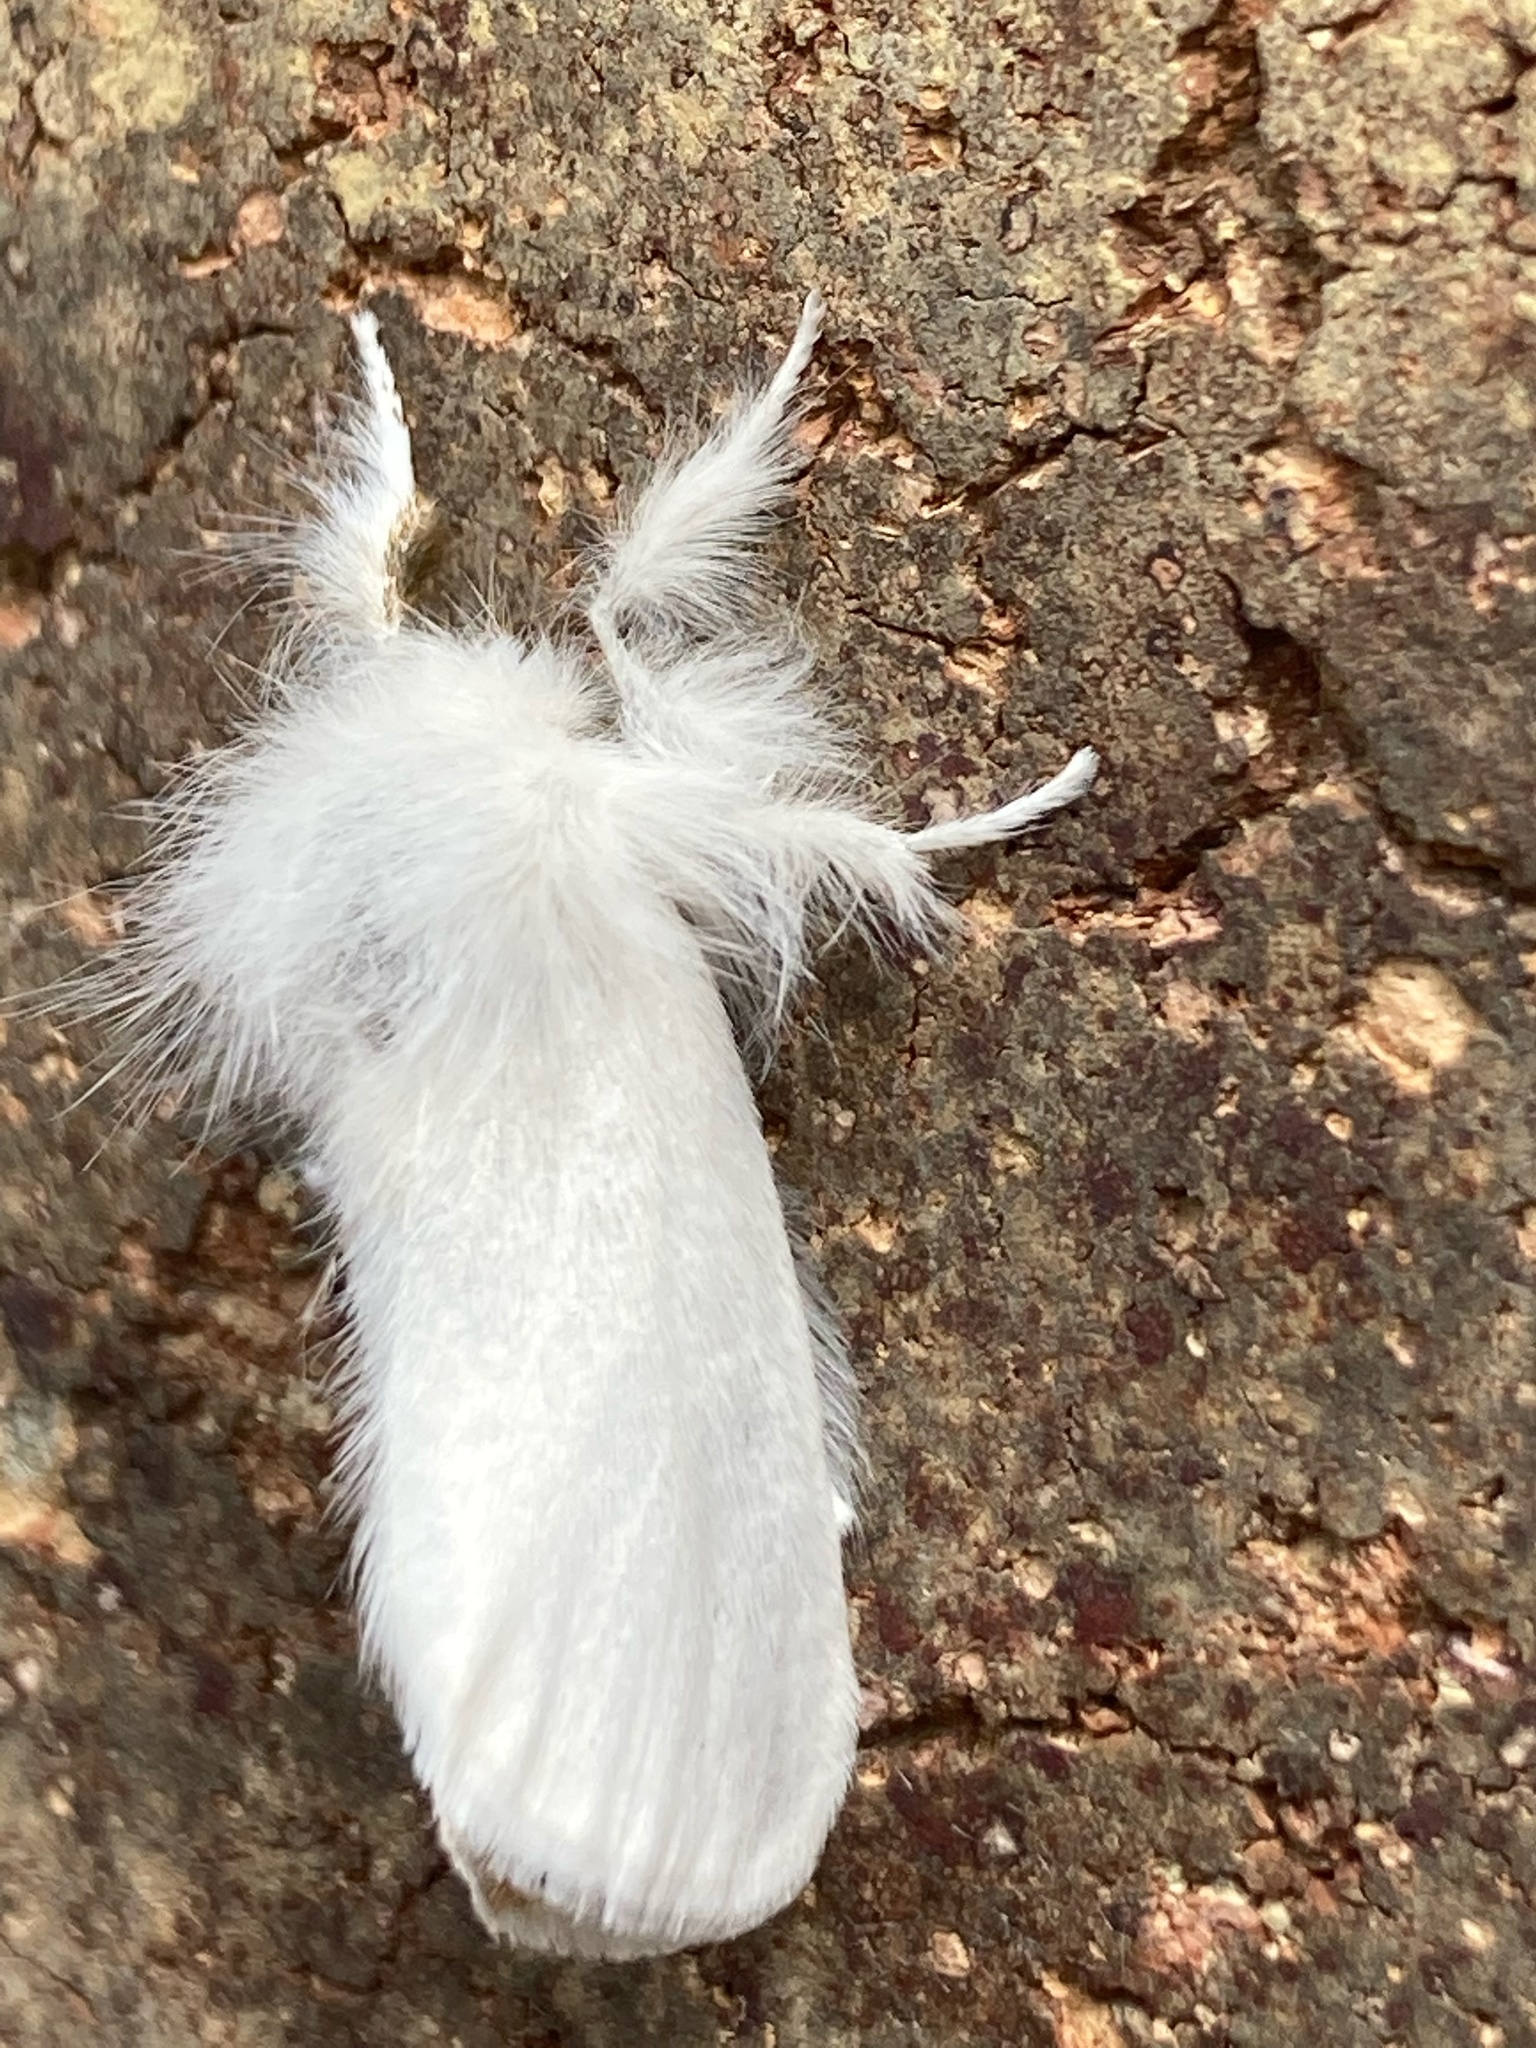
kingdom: Animalia
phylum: Arthropoda
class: Insecta
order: Lepidoptera
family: Erebidae
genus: Euproctis
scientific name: Euproctis chrysorrhoea
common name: Brown-tail
